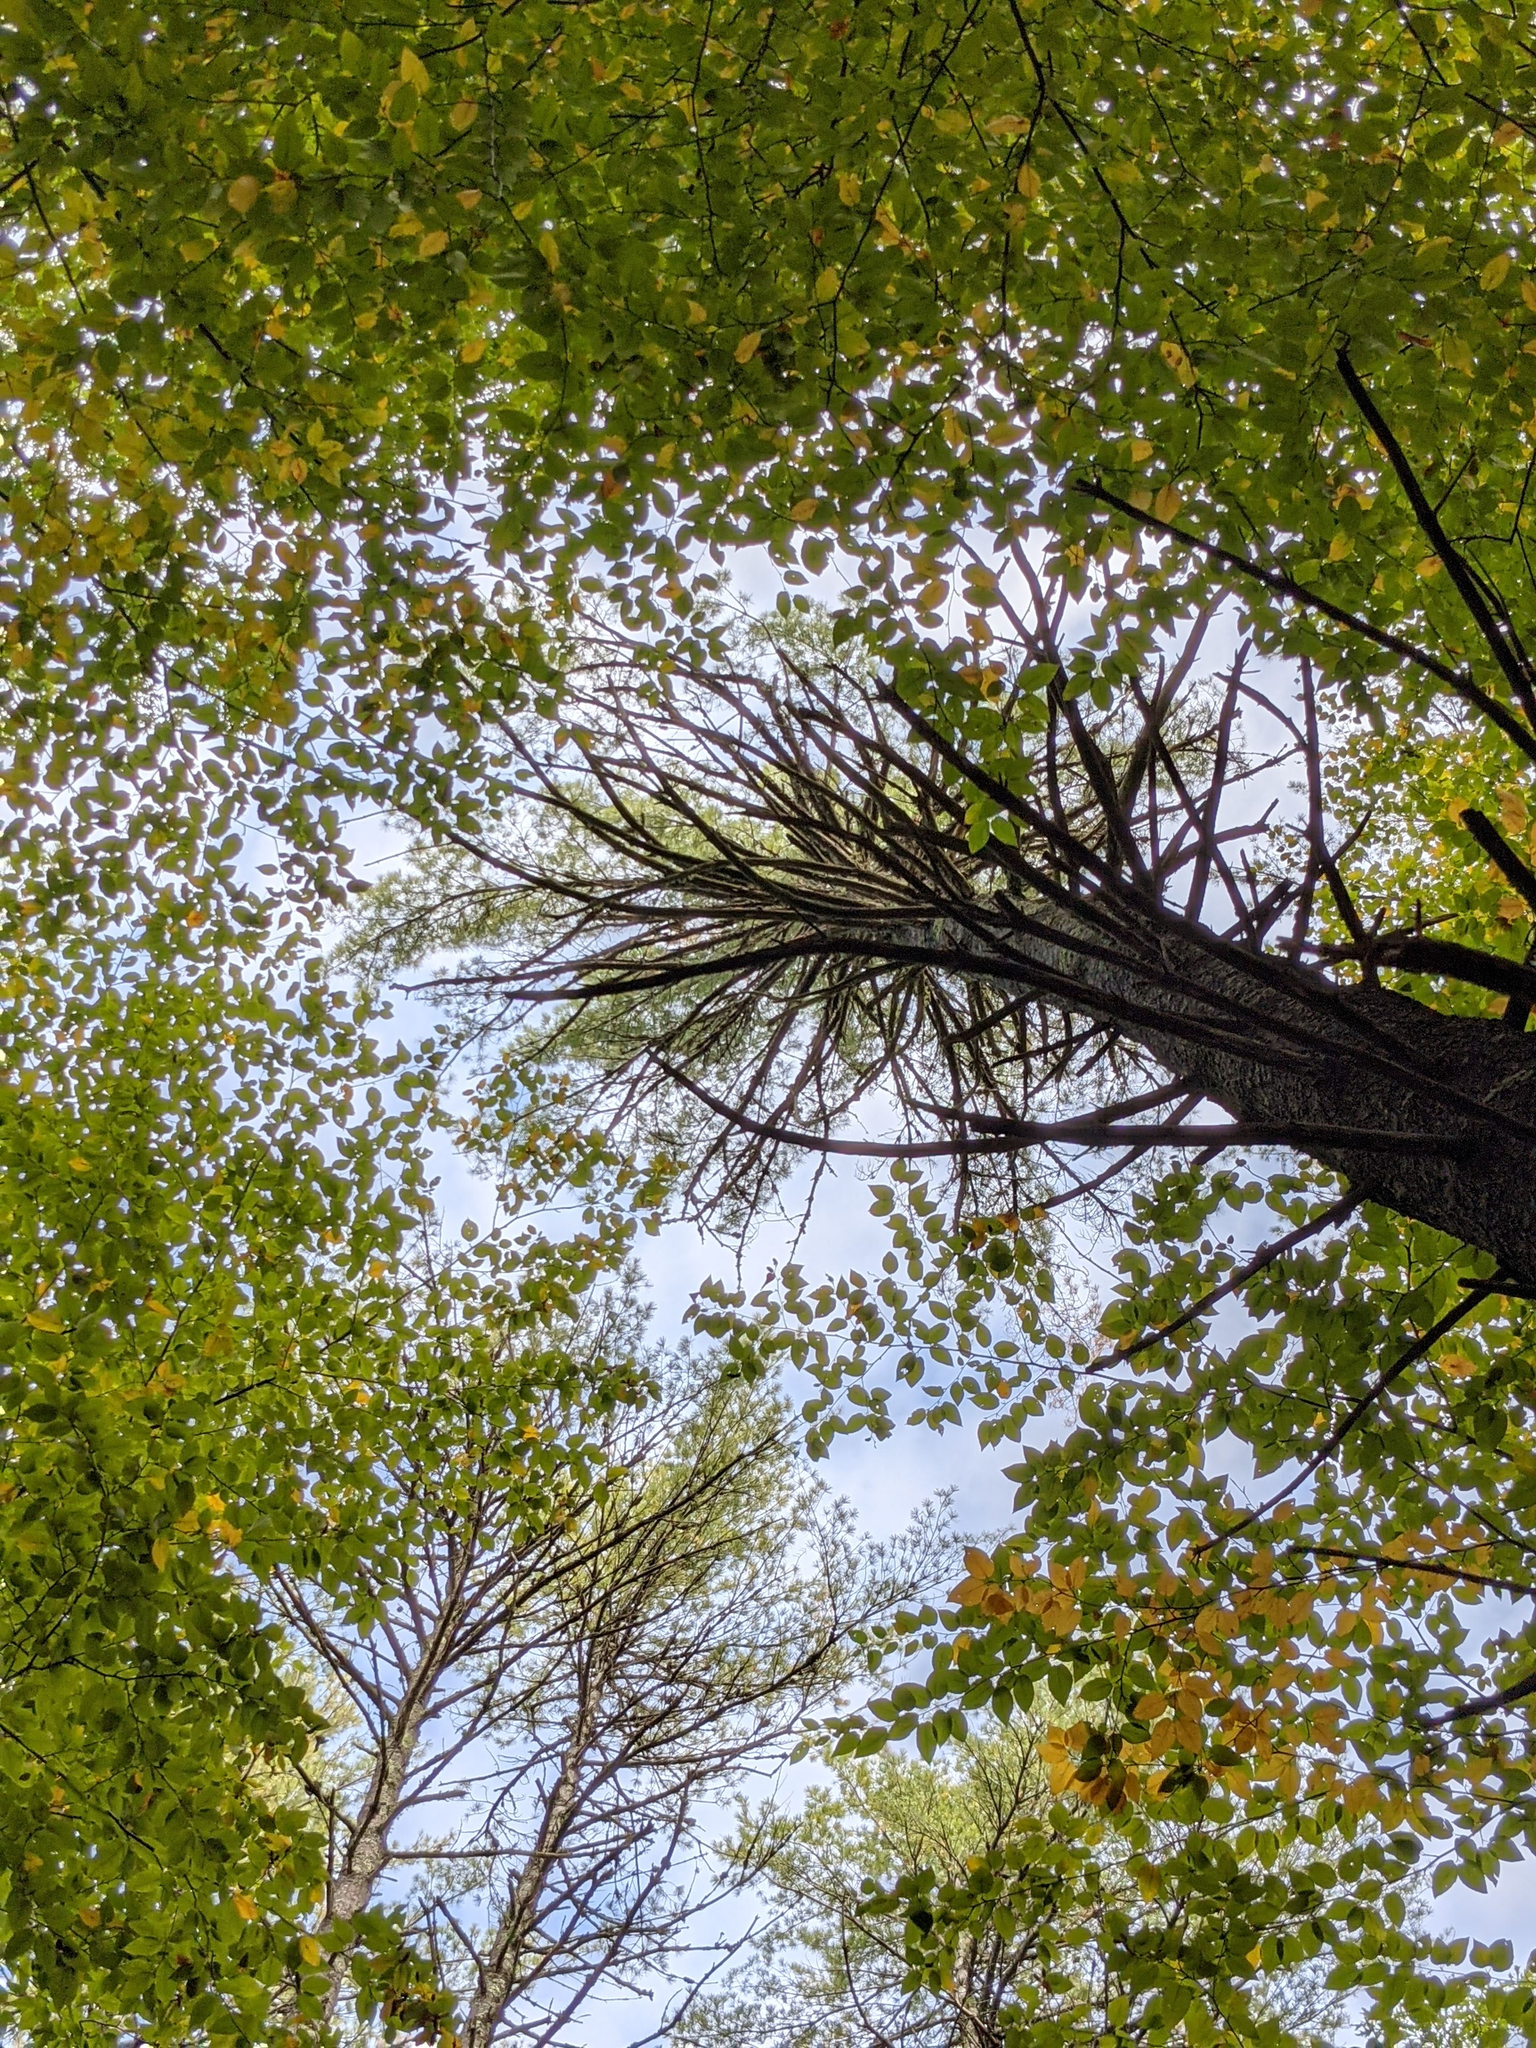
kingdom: Plantae
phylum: Tracheophyta
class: Pinopsida
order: Pinales
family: Pinaceae
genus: Pinus
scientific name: Pinus strobus
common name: Weymouth pine
